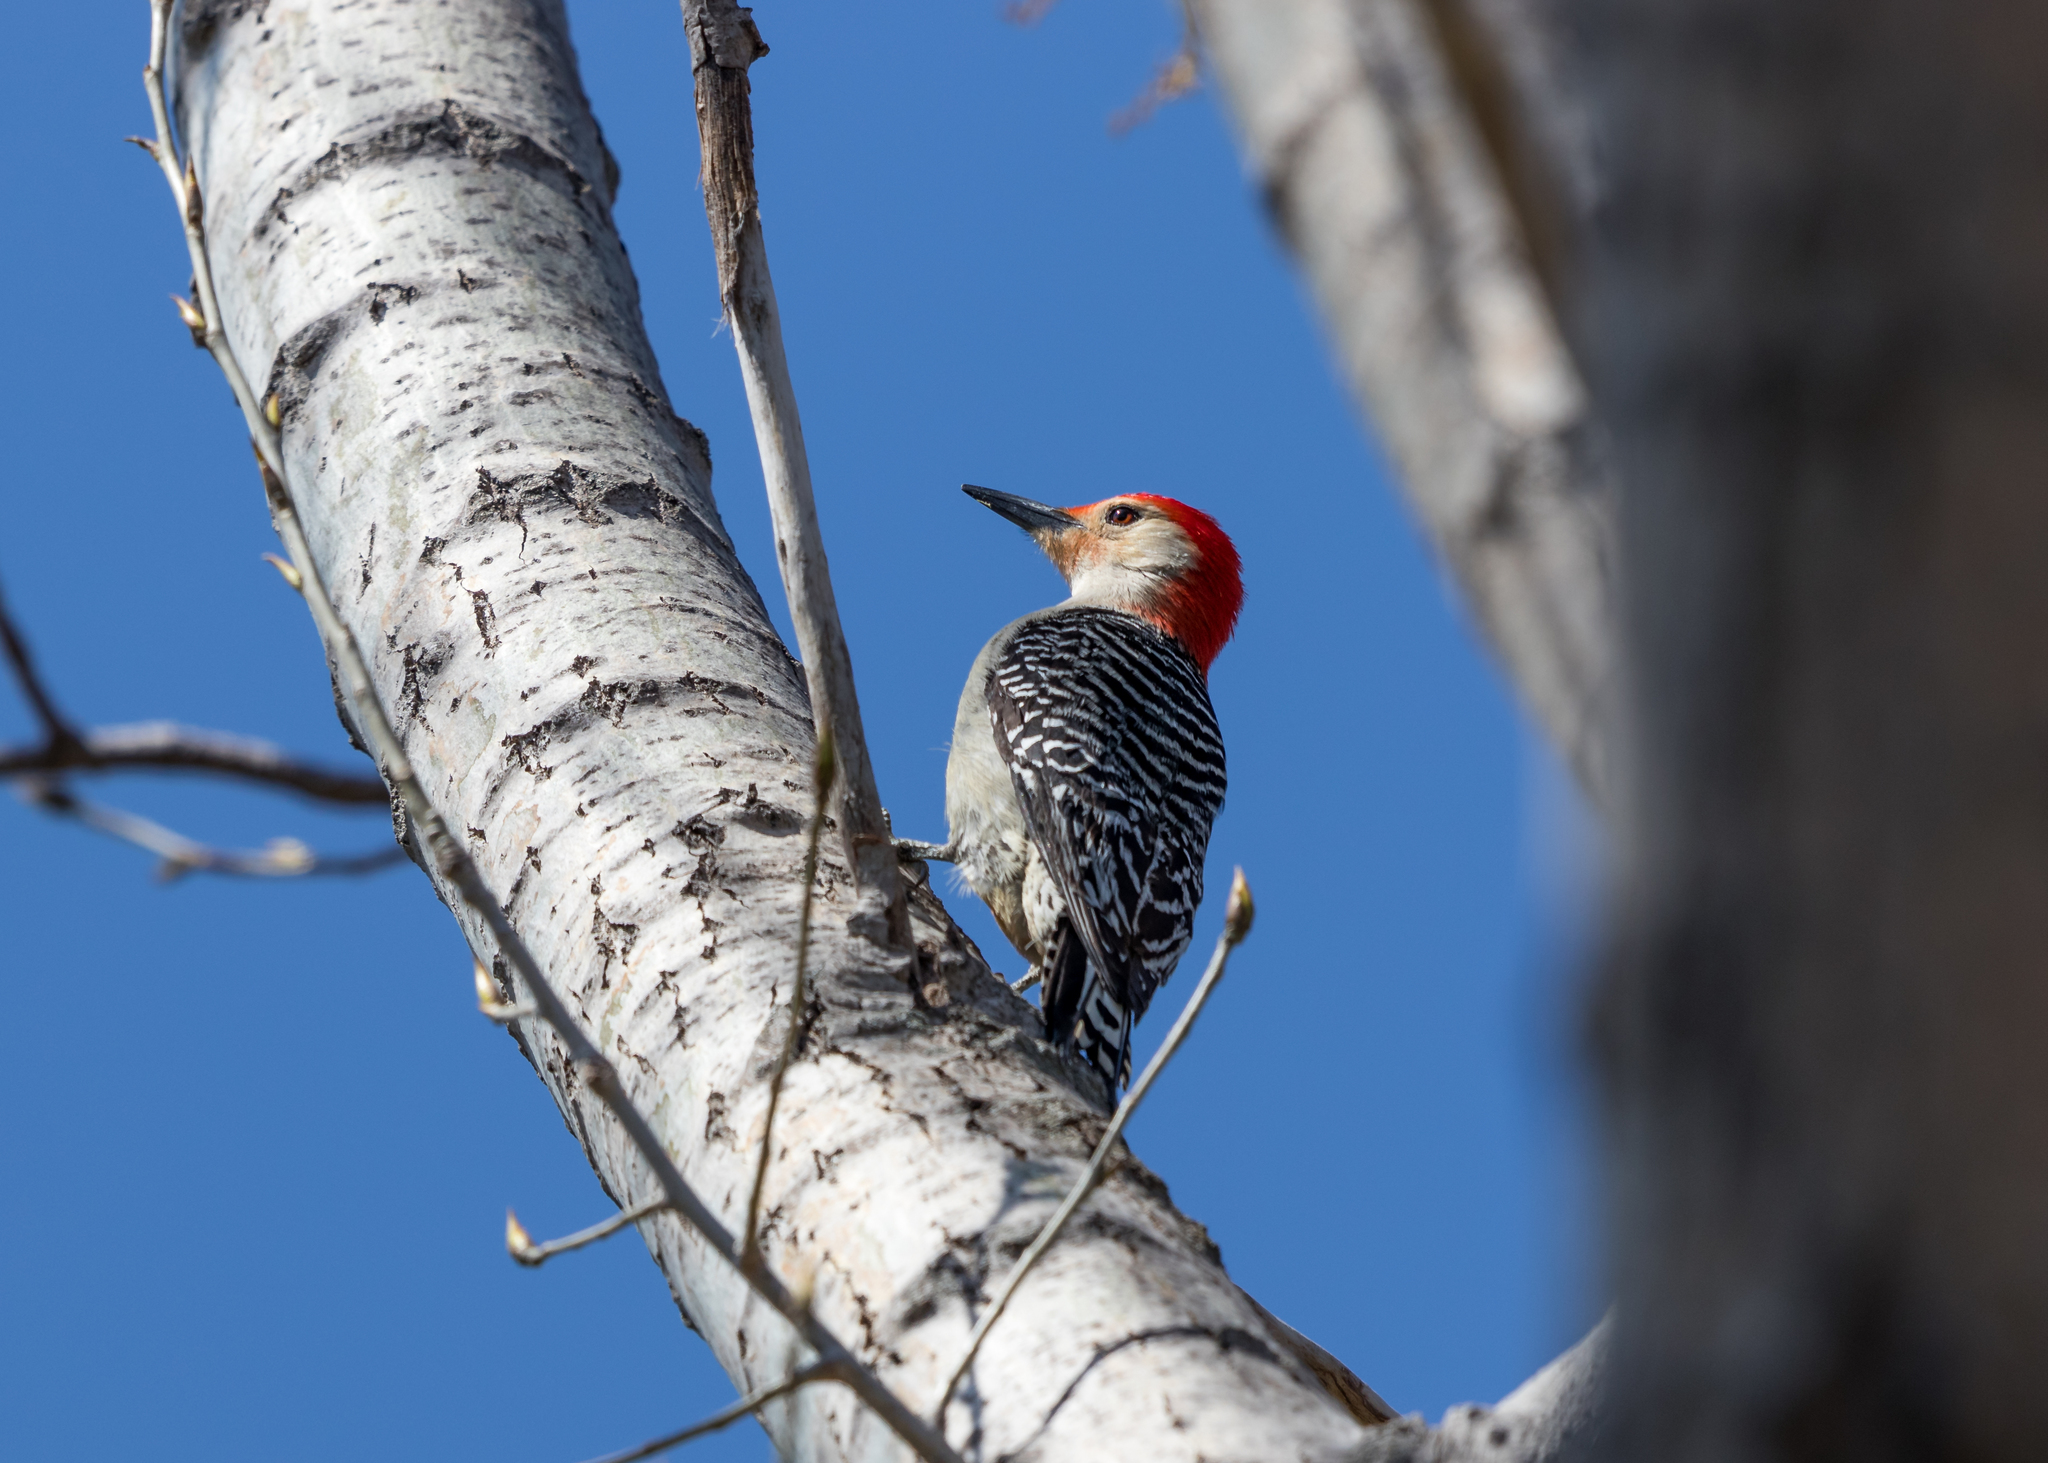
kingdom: Animalia
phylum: Chordata
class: Aves
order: Piciformes
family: Picidae
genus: Melanerpes
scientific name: Melanerpes carolinus
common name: Red-bellied woodpecker
